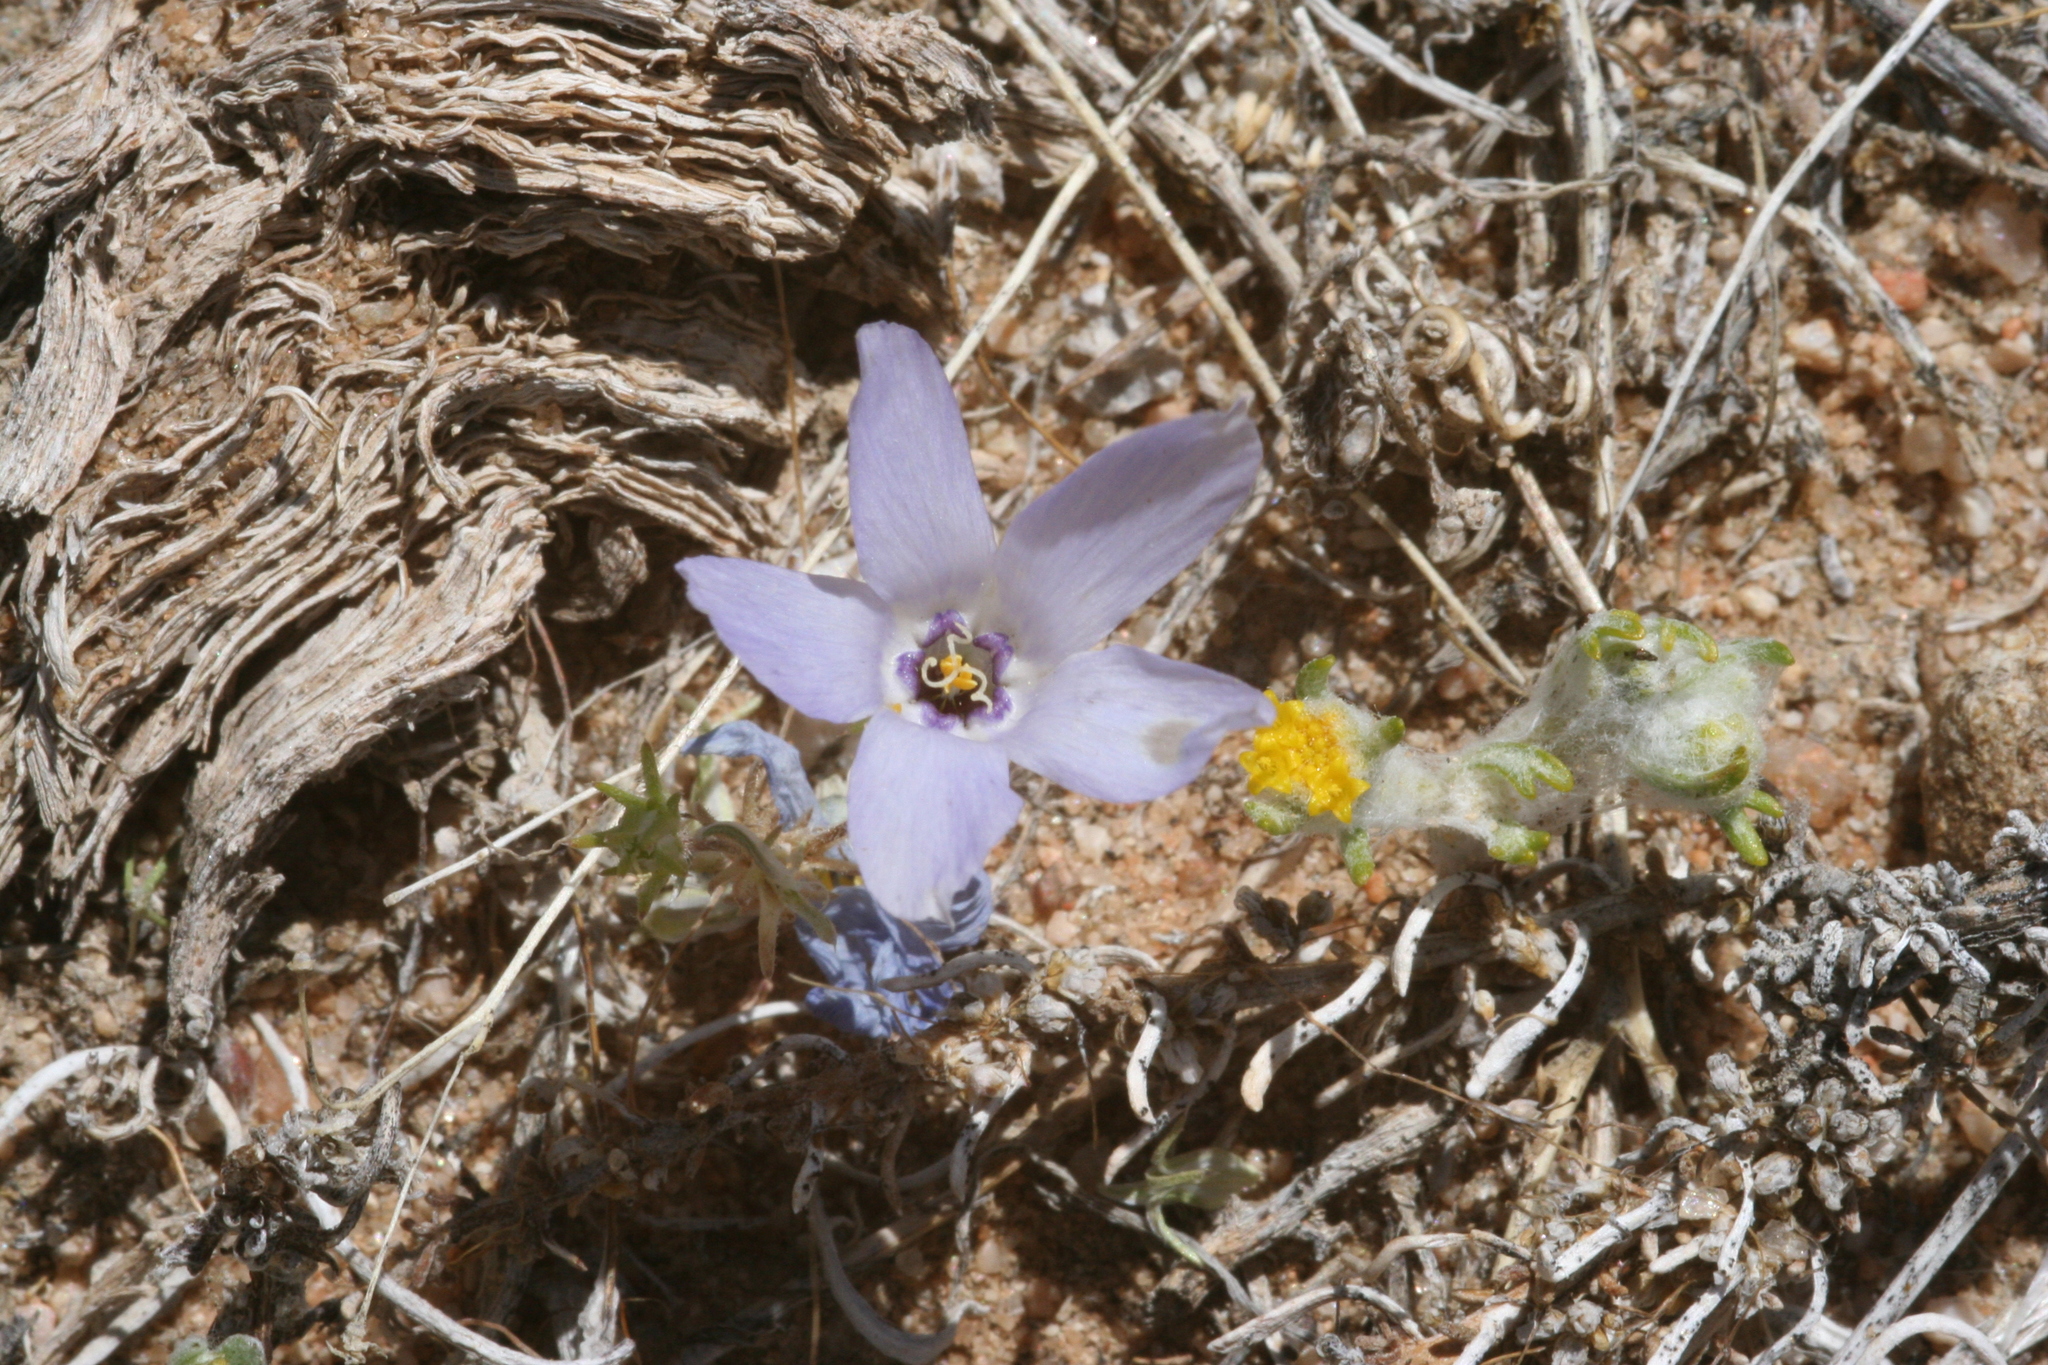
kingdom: Plantae
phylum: Tracheophyta
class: Magnoliopsida
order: Ericales
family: Polemoniaceae
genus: Linanthus
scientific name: Linanthus parryae
